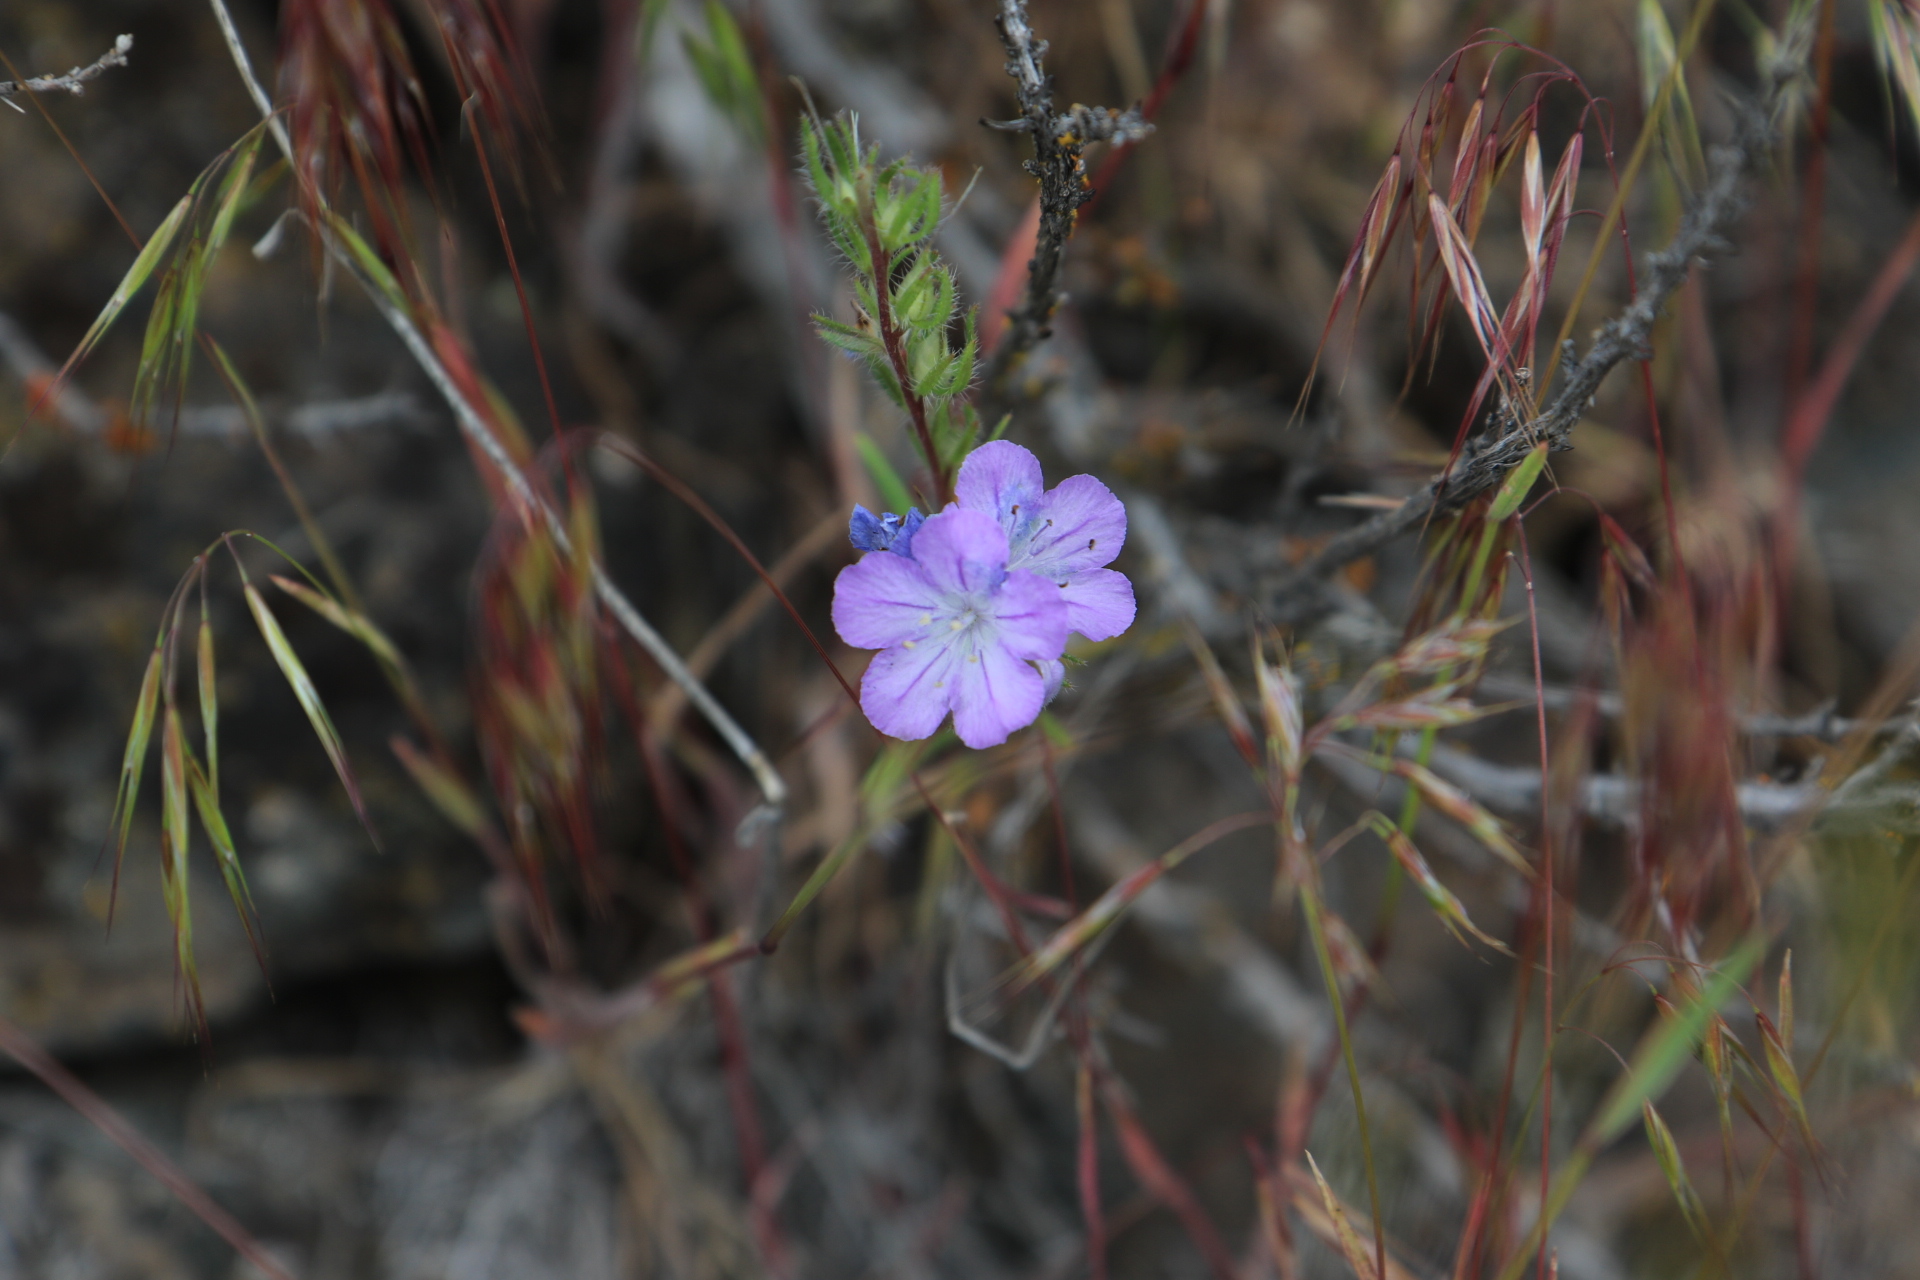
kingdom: Plantae
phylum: Tracheophyta
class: Magnoliopsida
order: Boraginales
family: Hydrophyllaceae
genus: Phacelia
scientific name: Phacelia linearis
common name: Linear-leaved phacelia
